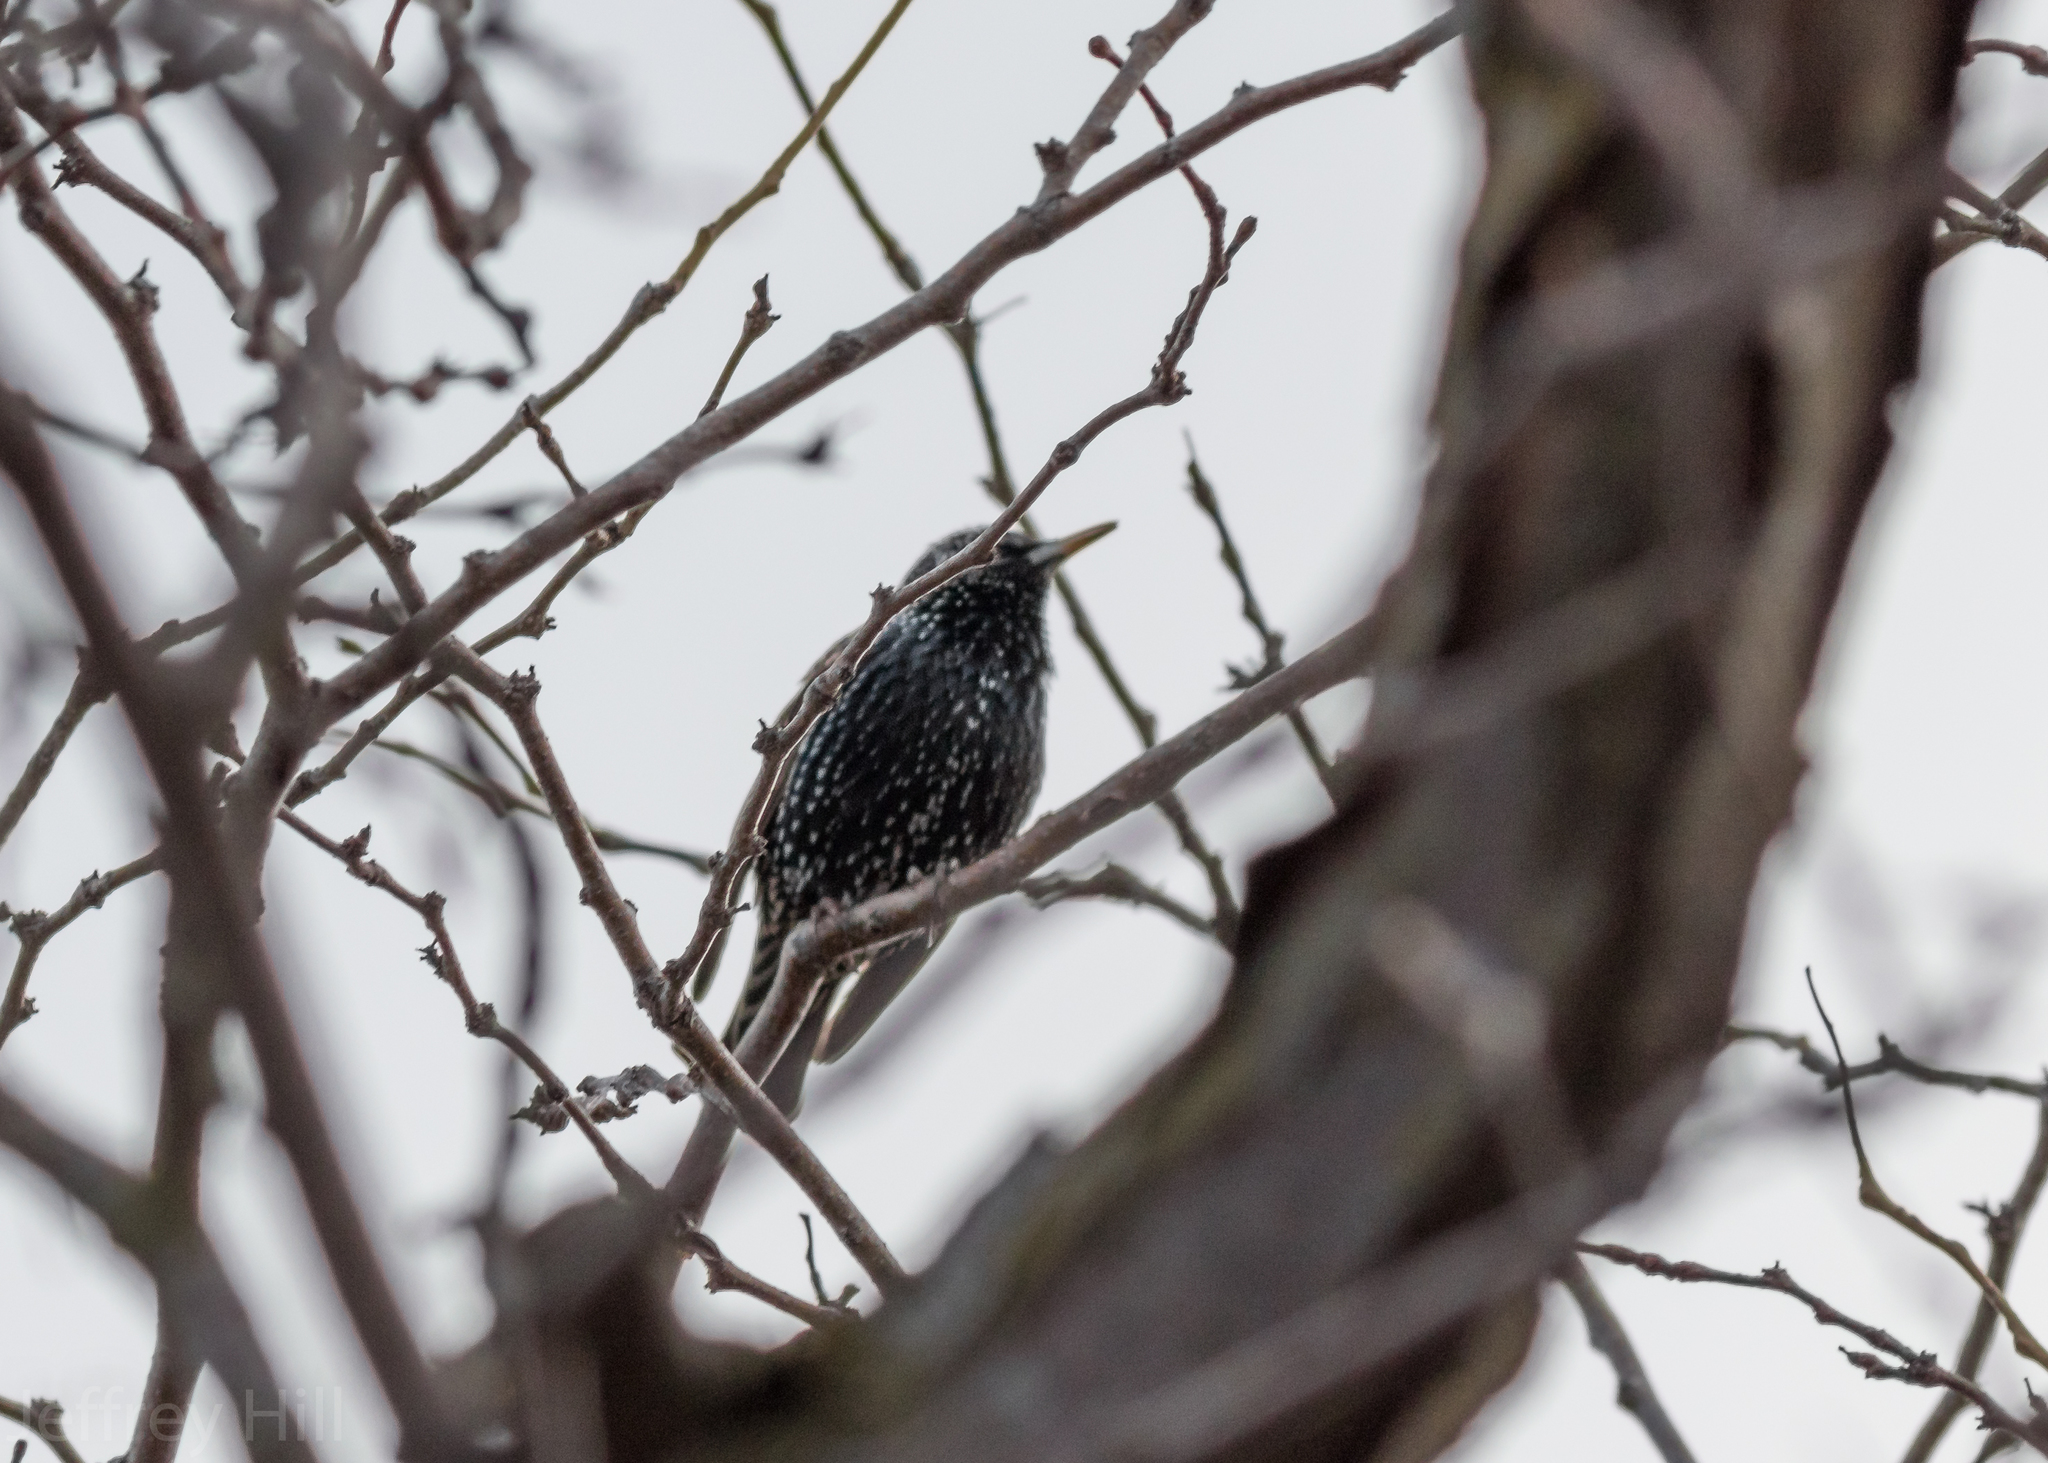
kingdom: Animalia
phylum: Chordata
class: Aves
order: Passeriformes
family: Sturnidae
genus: Sturnus
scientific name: Sturnus vulgaris
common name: Common starling
